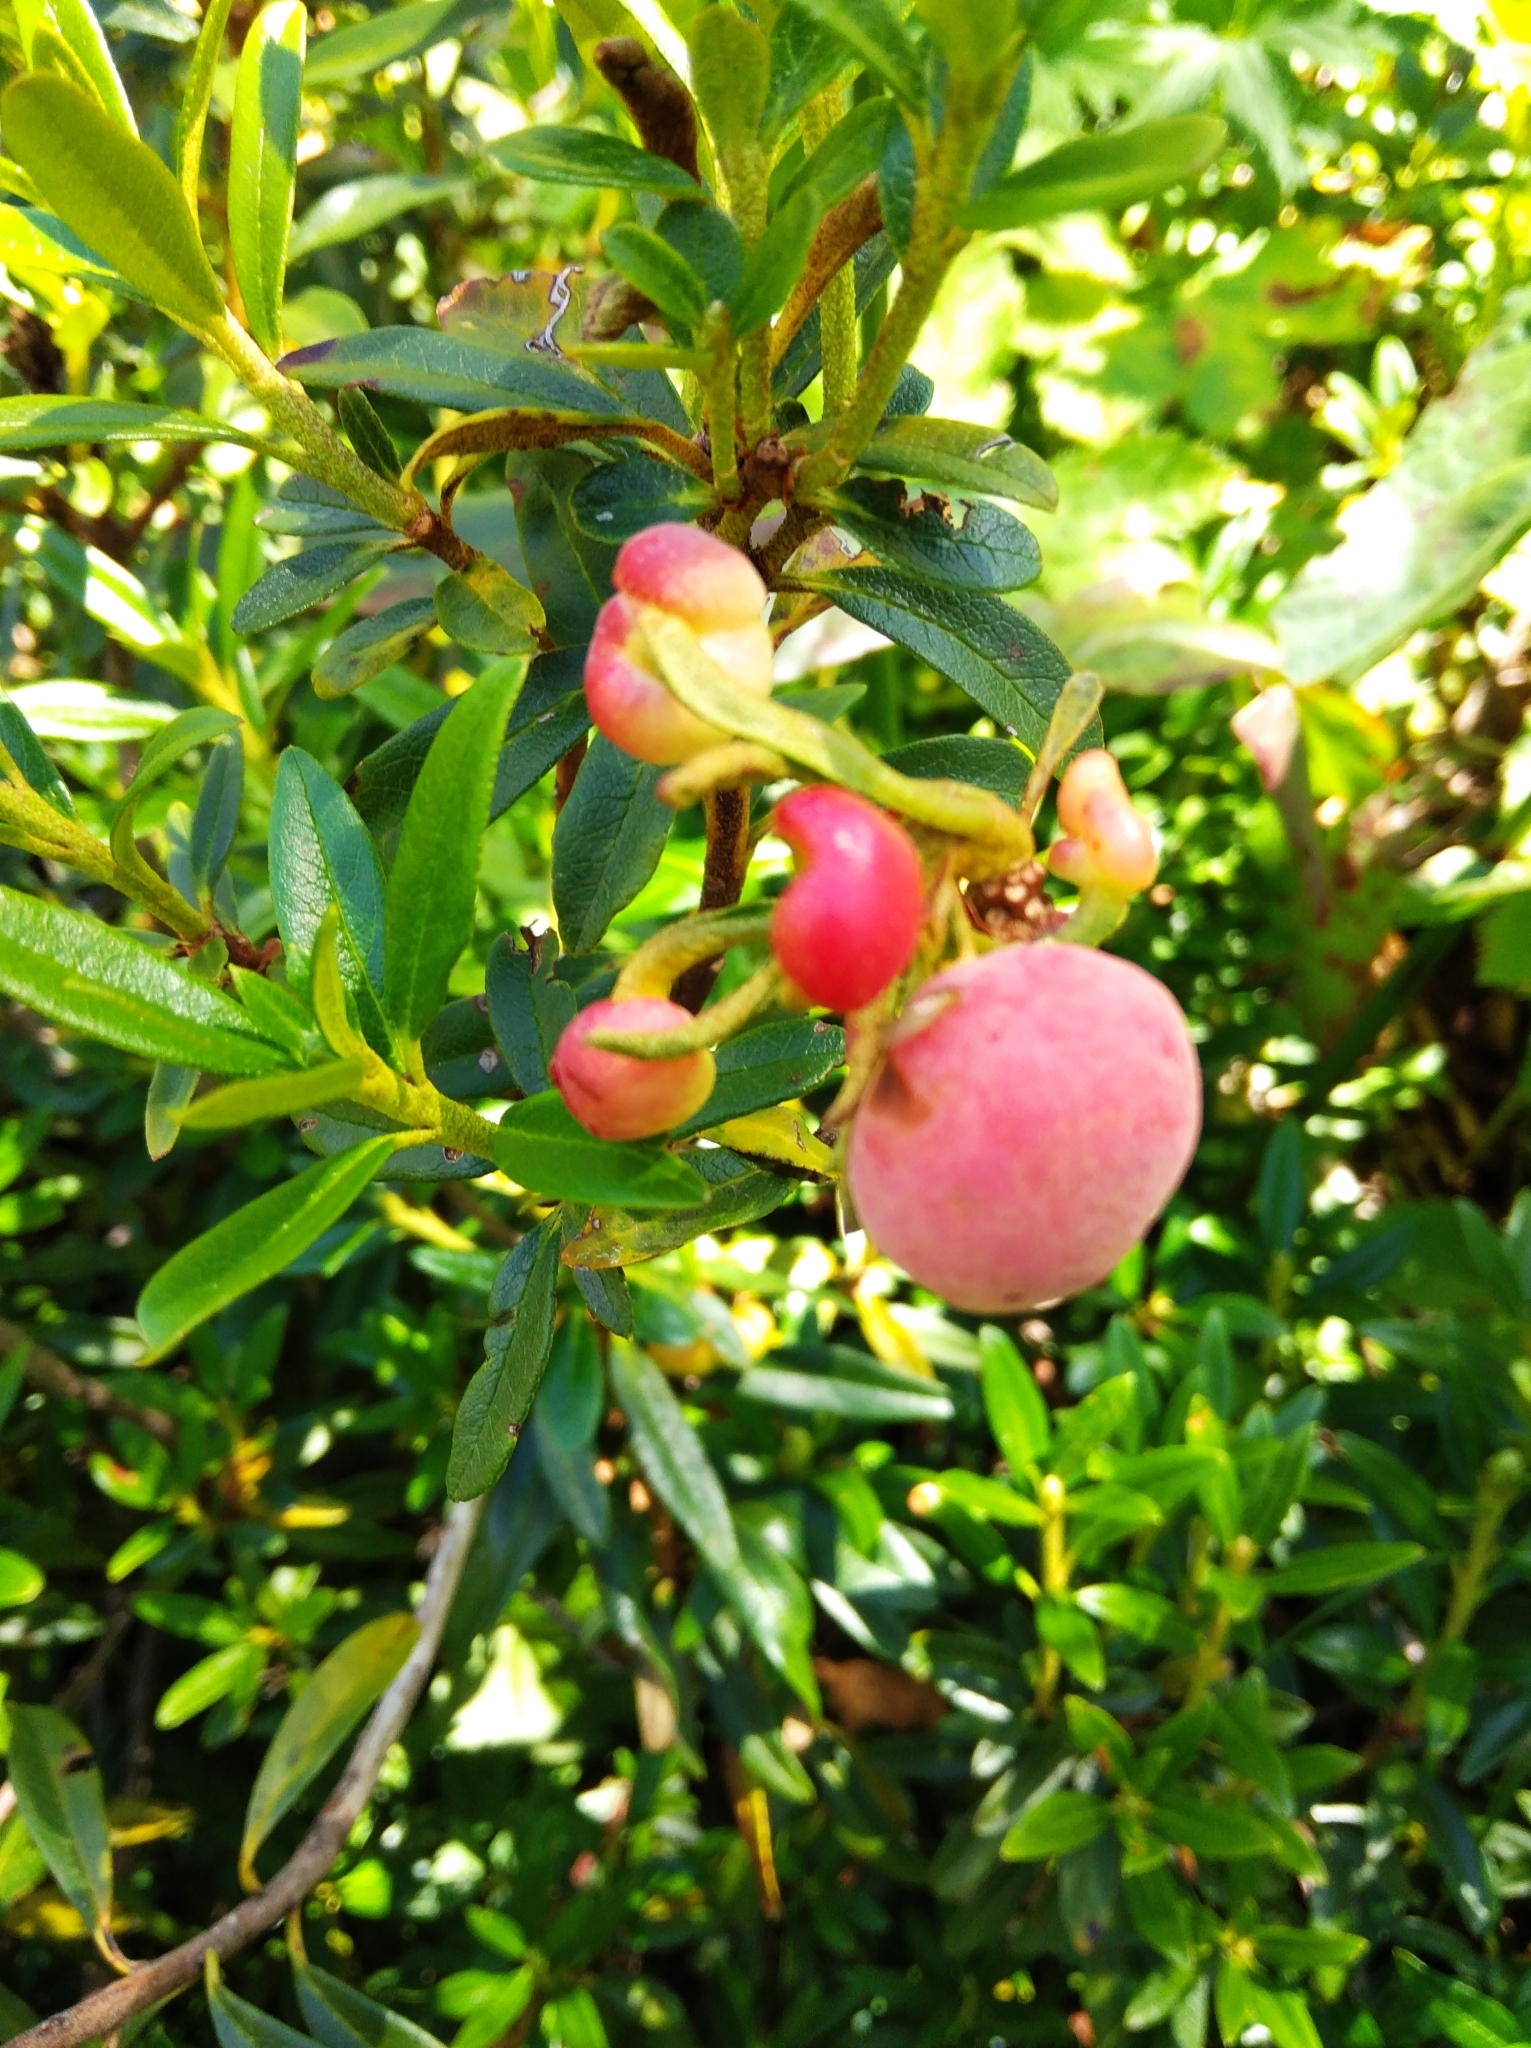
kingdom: Plantae
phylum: Tracheophyta
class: Magnoliopsida
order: Ericales
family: Ericaceae
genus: Rhododendron
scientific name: Rhododendron ferrugineum
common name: Alpenrose
